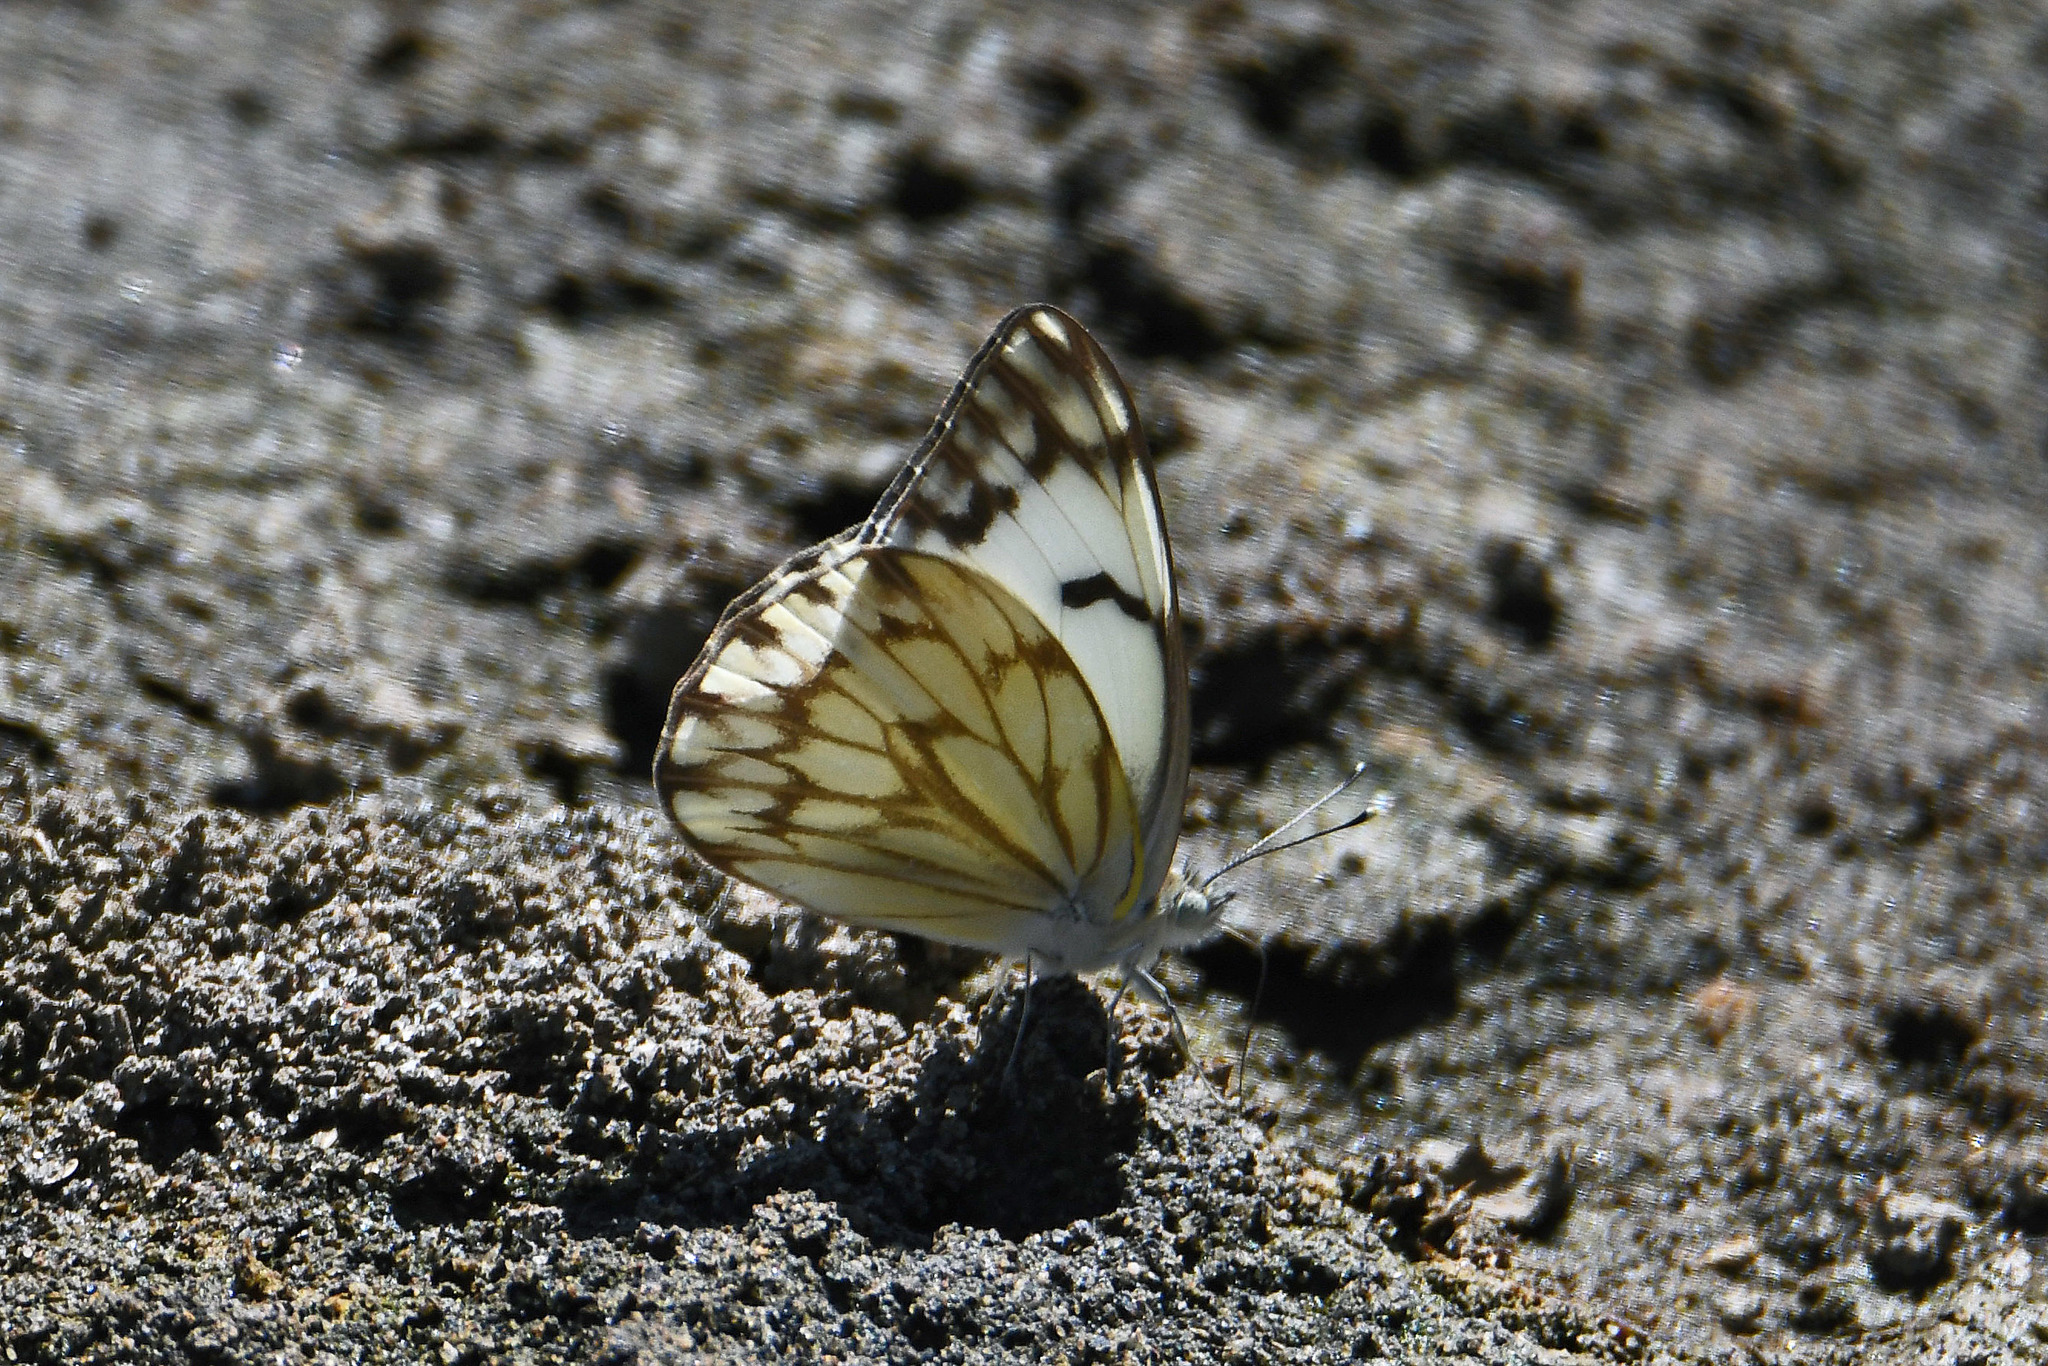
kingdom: Animalia
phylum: Arthropoda
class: Insecta
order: Lepidoptera
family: Pieridae
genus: Belenois
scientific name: Belenois gidica
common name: Pointed caper white
